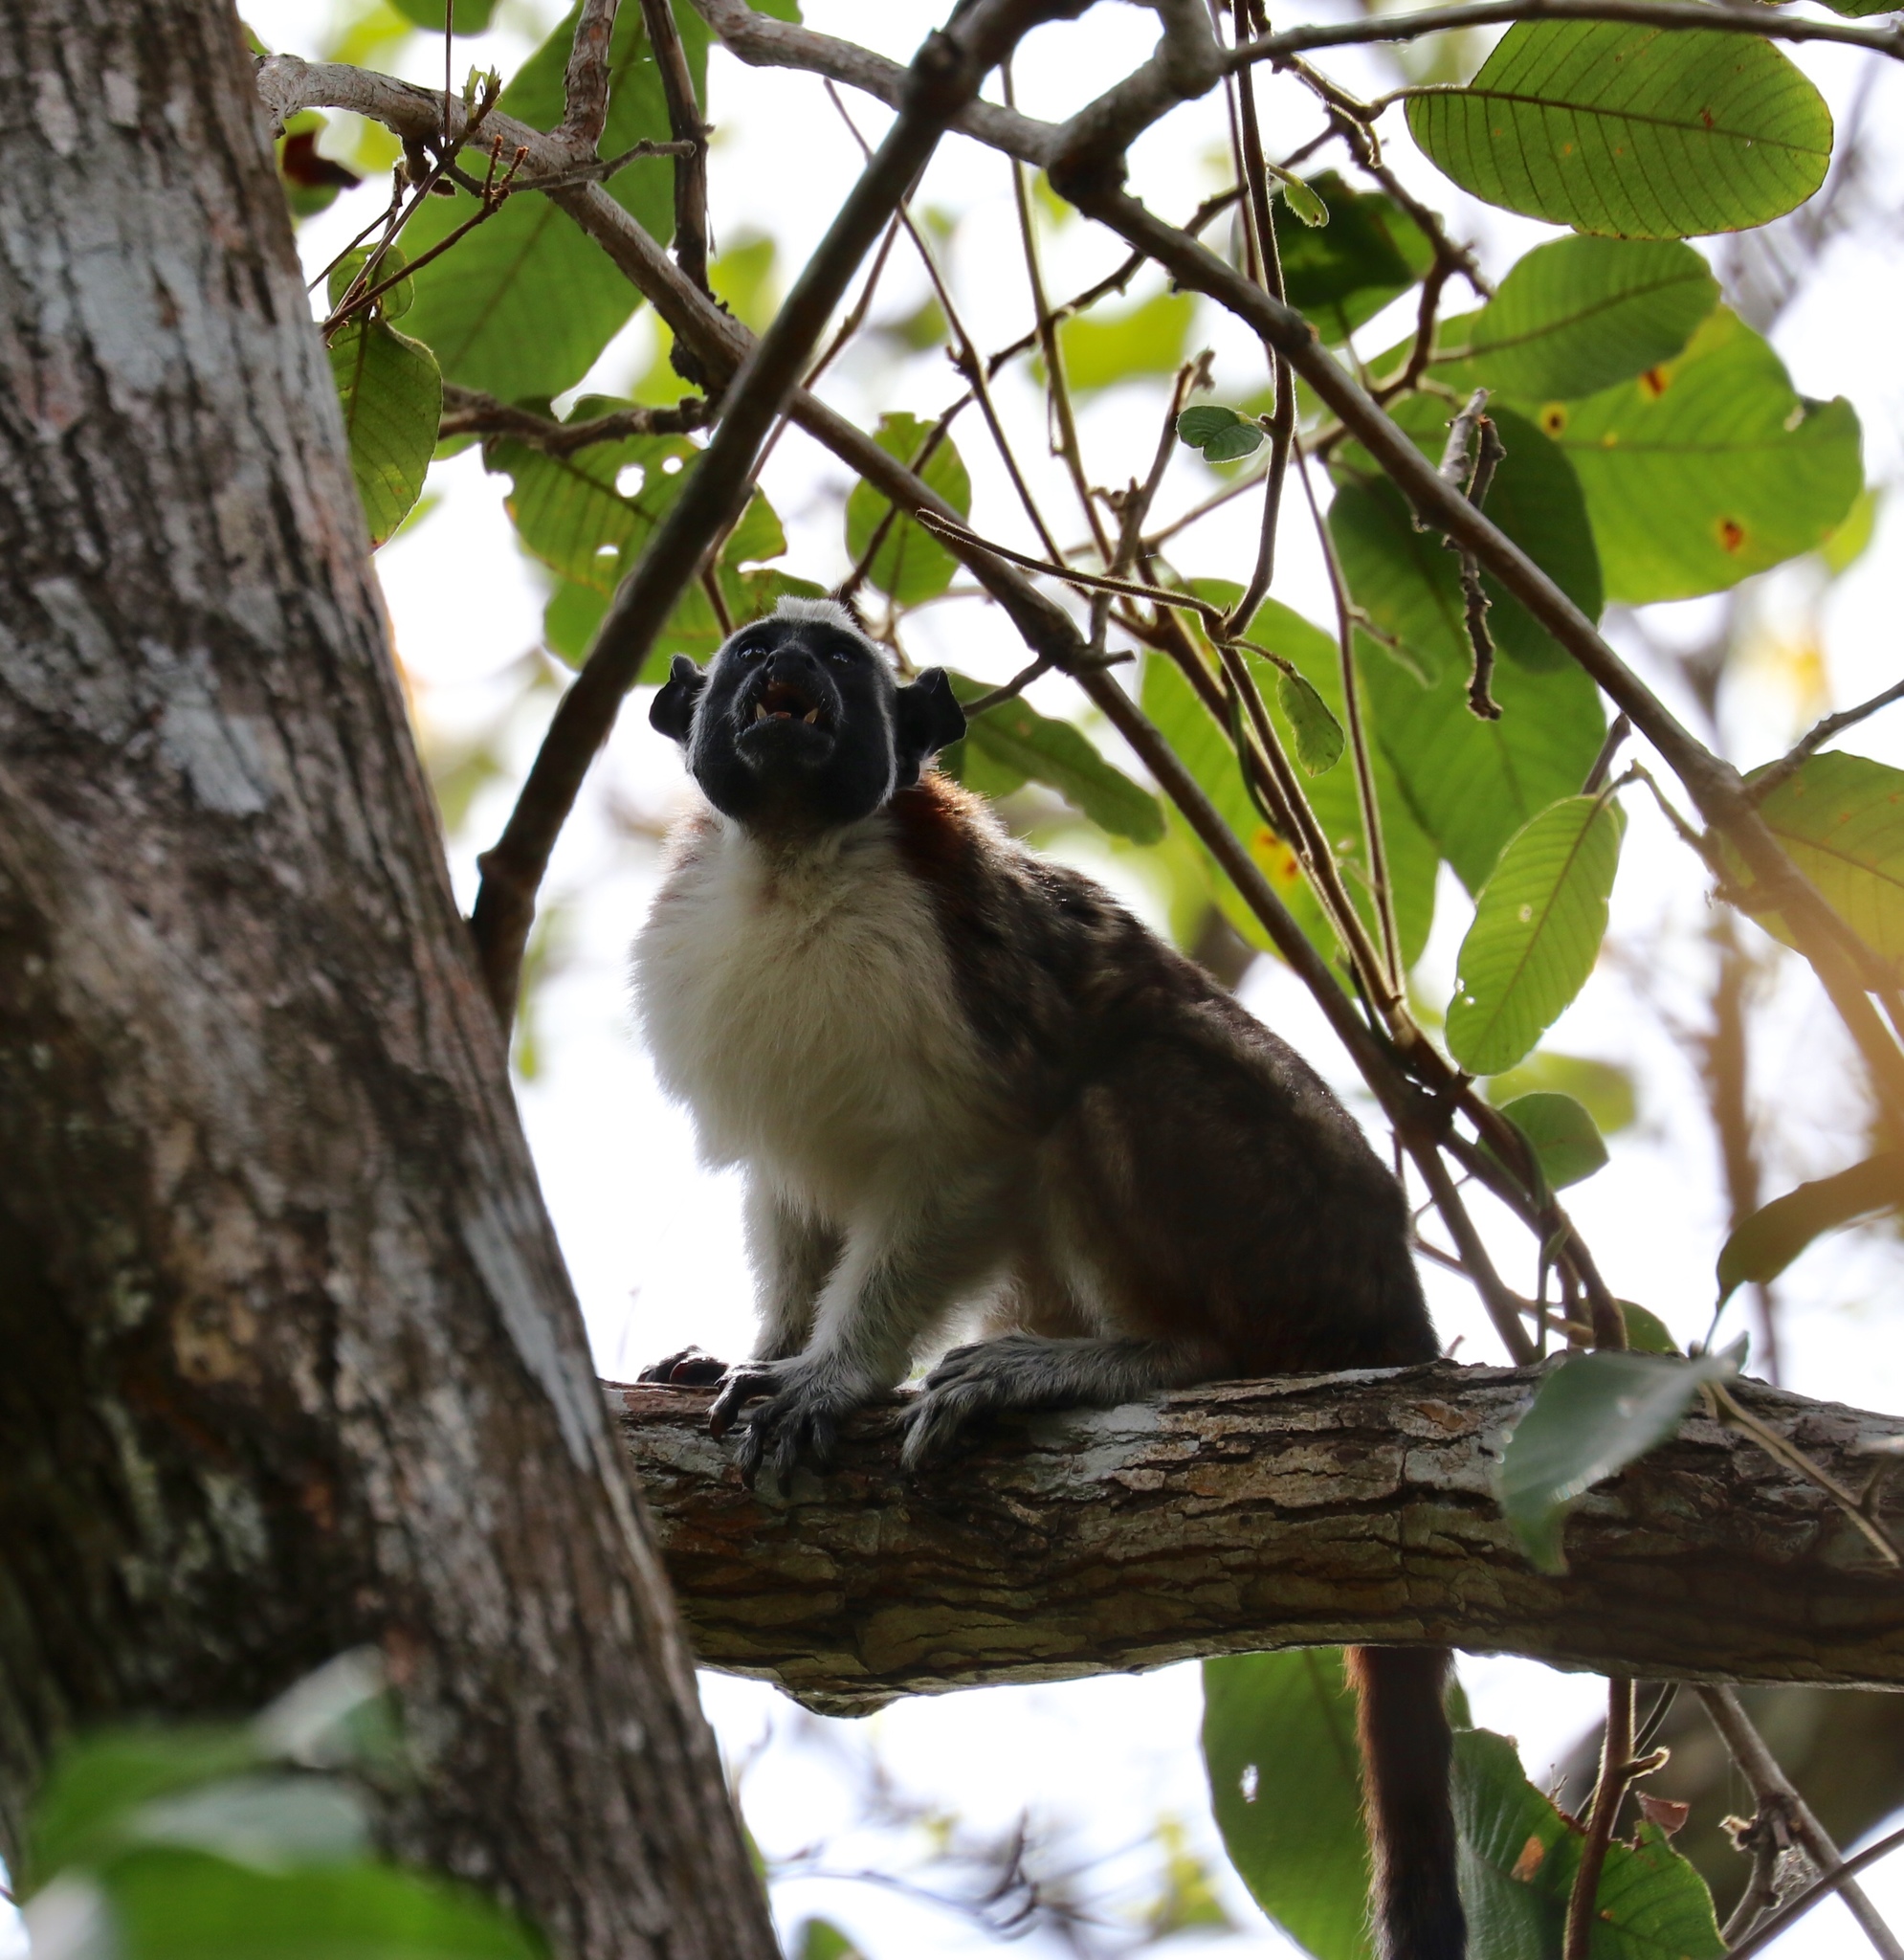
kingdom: Animalia
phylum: Chordata
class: Mammalia
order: Primates
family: Callitrichidae
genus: Saguinus
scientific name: Saguinus geoffroyi
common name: Geoffroy s tamarin
